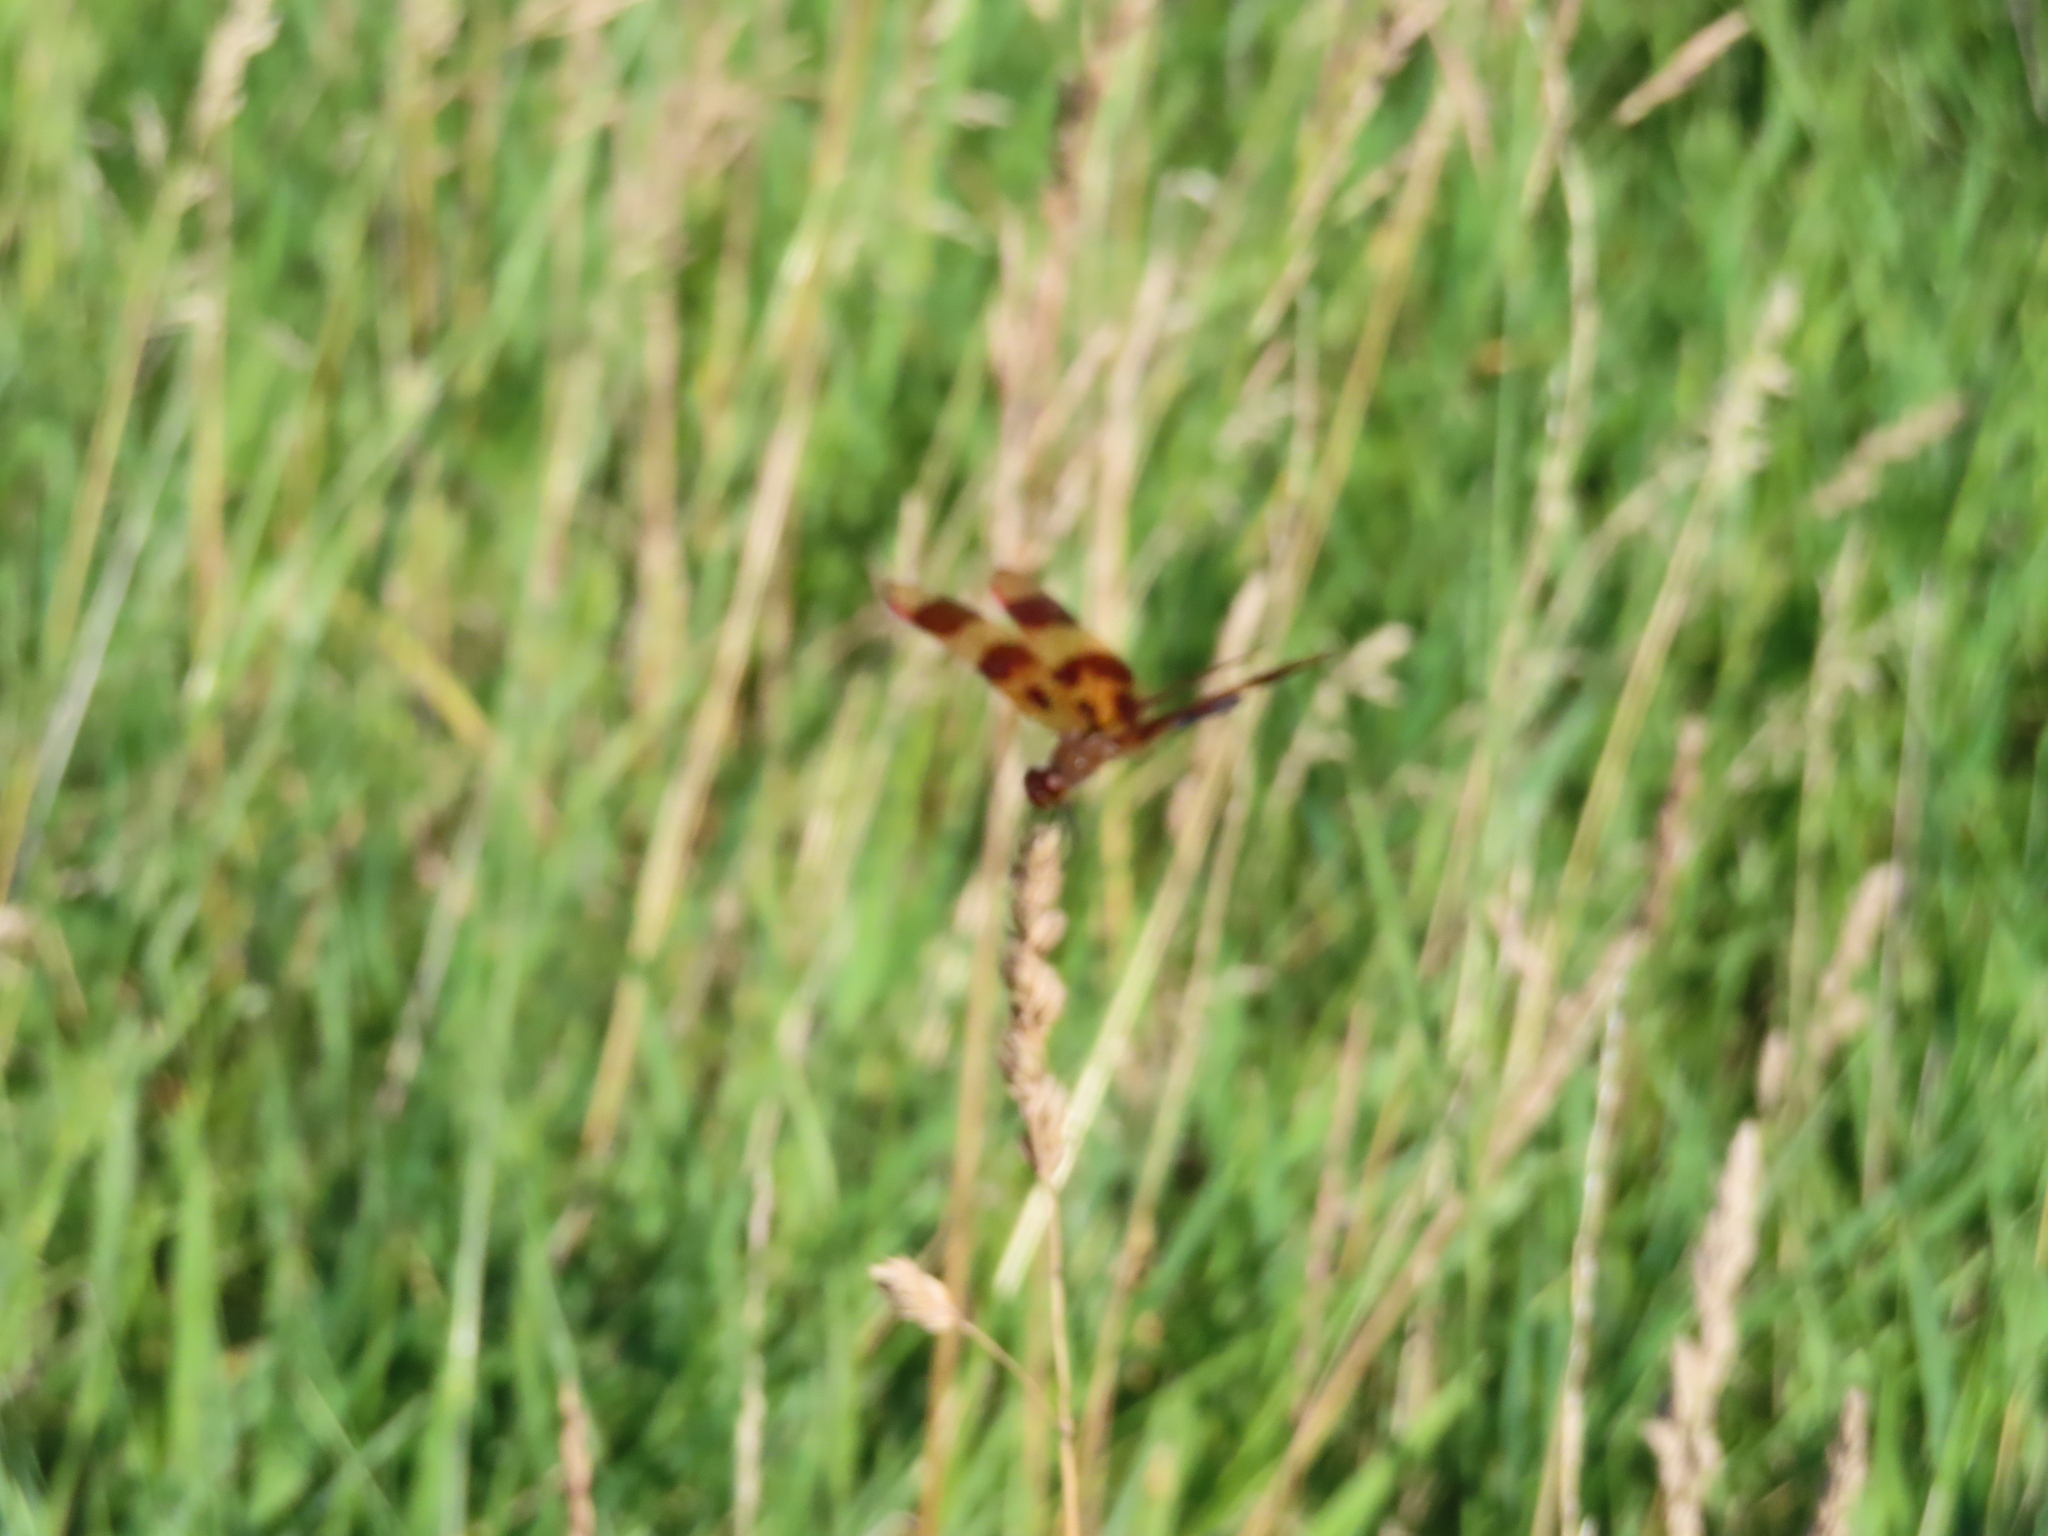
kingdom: Animalia
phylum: Arthropoda
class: Insecta
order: Odonata
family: Libellulidae
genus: Celithemis
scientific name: Celithemis eponina
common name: Halloween pennant
